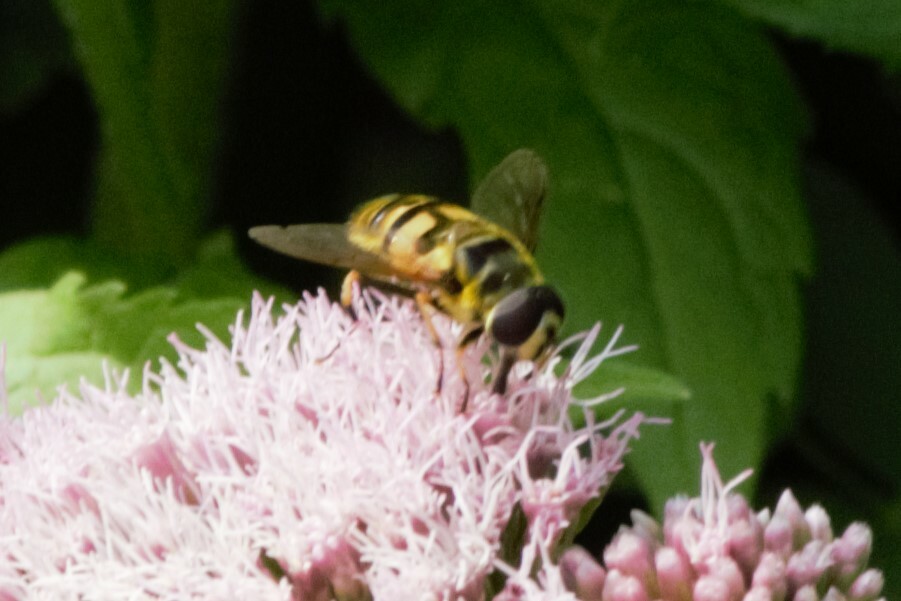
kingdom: Animalia
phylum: Arthropoda
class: Insecta
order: Diptera
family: Syrphidae
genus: Myathropa
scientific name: Myathropa florea
